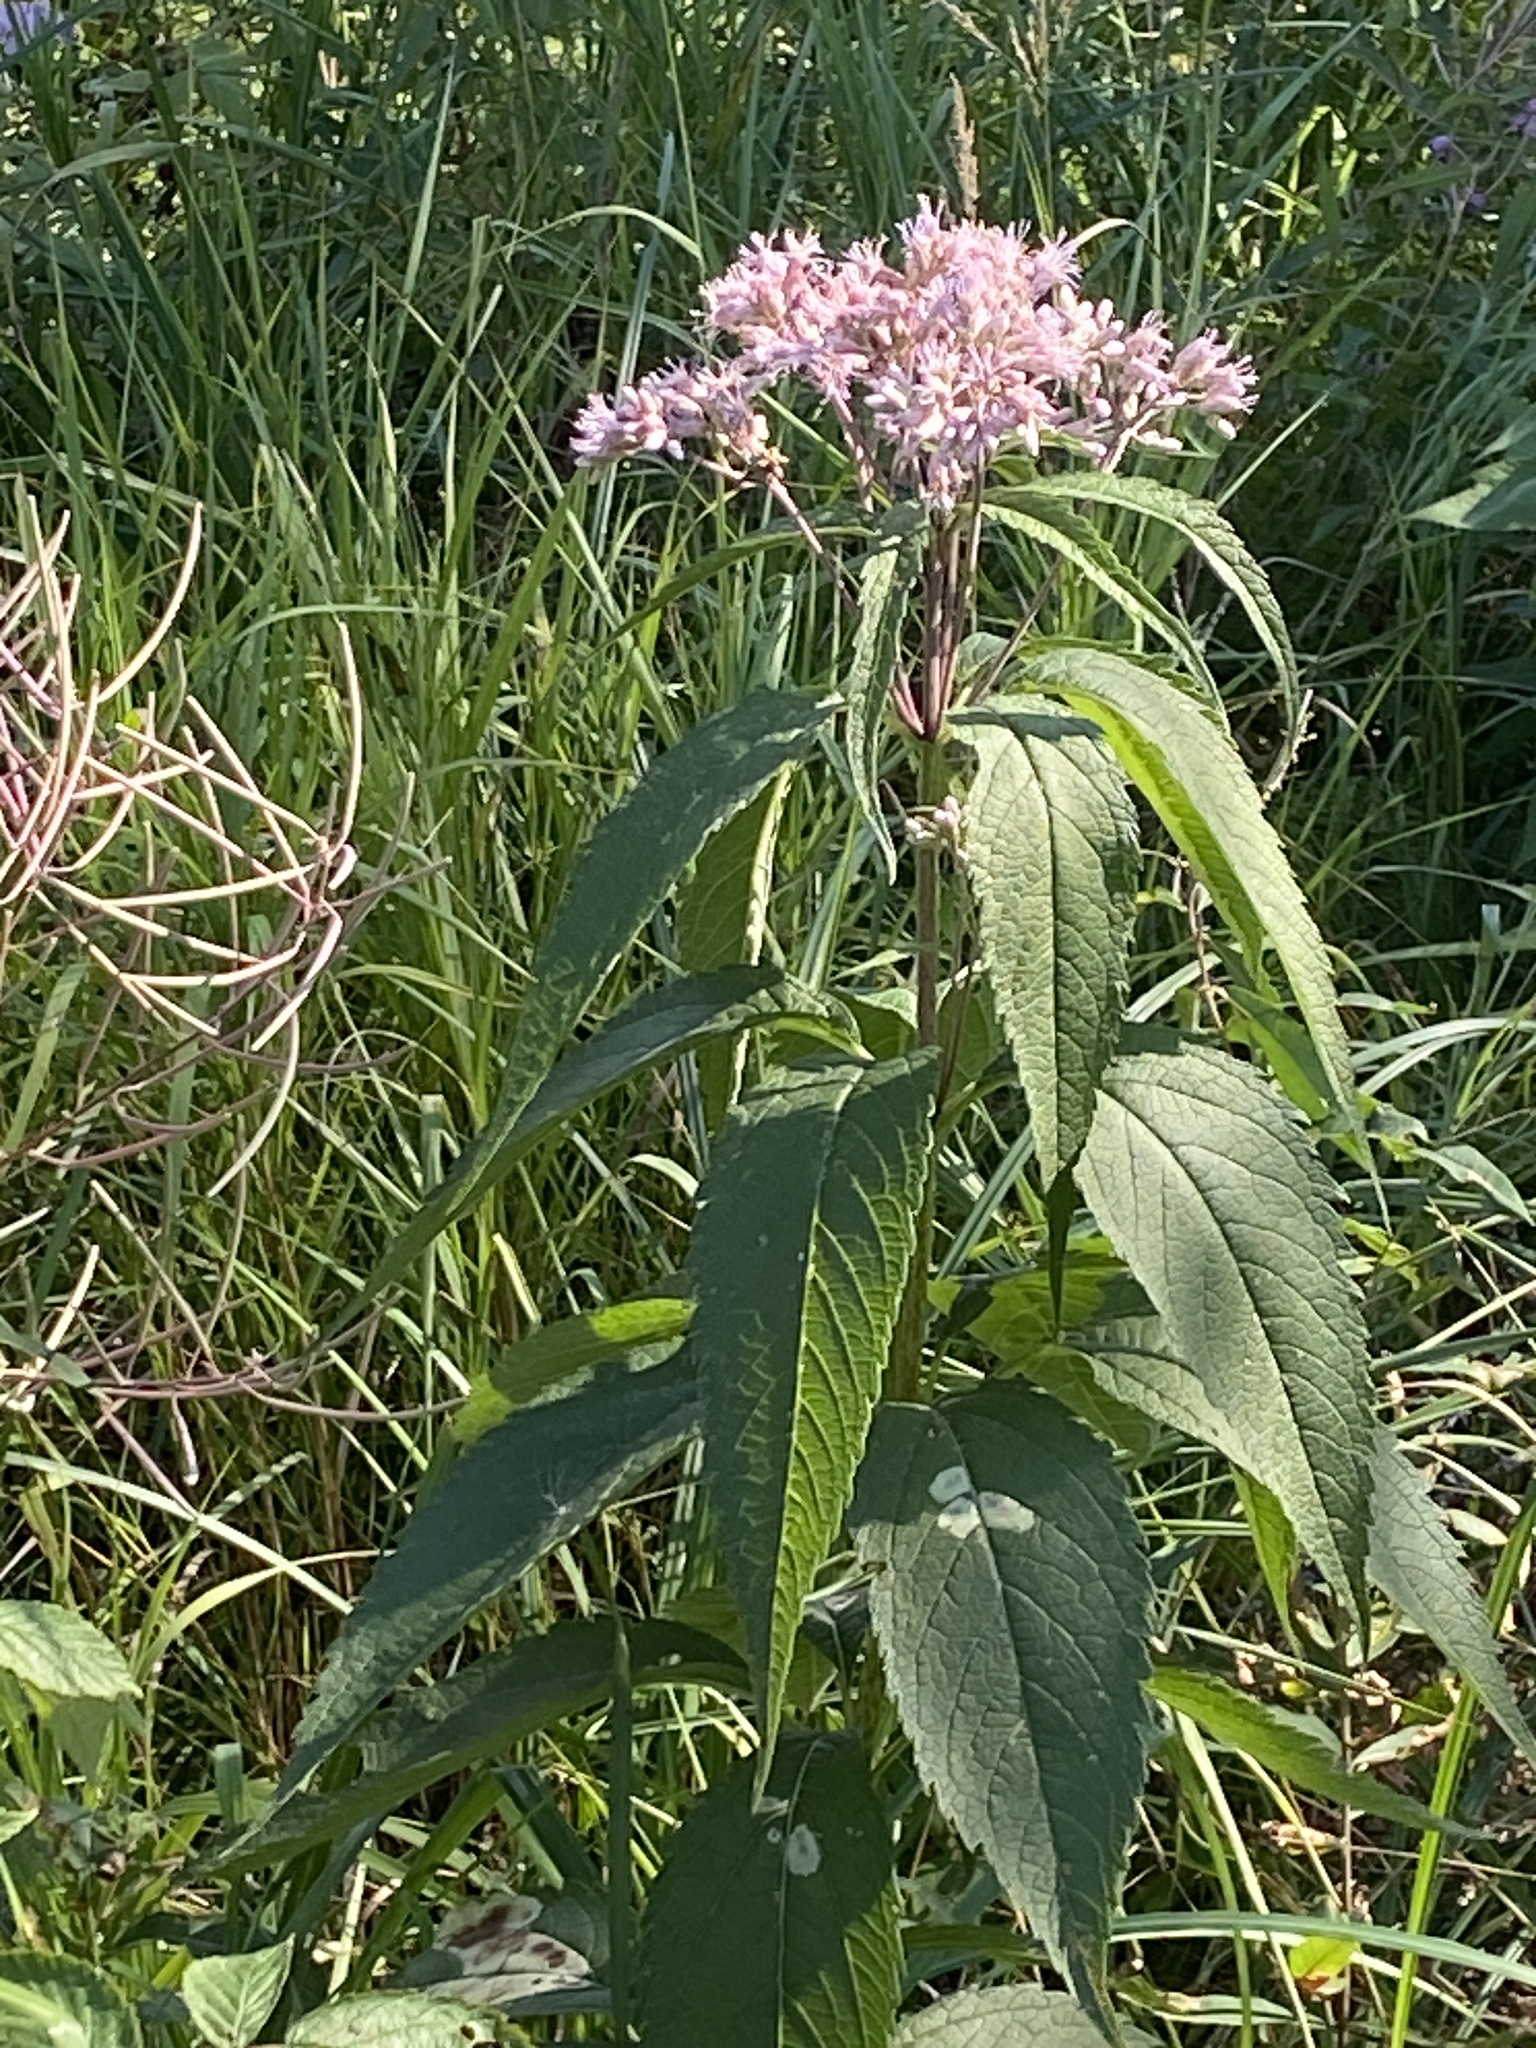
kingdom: Plantae
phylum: Tracheophyta
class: Magnoliopsida
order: Asterales
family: Asteraceae
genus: Eutrochium
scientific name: Eutrochium maculatum
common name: Spotted joe pye weed
